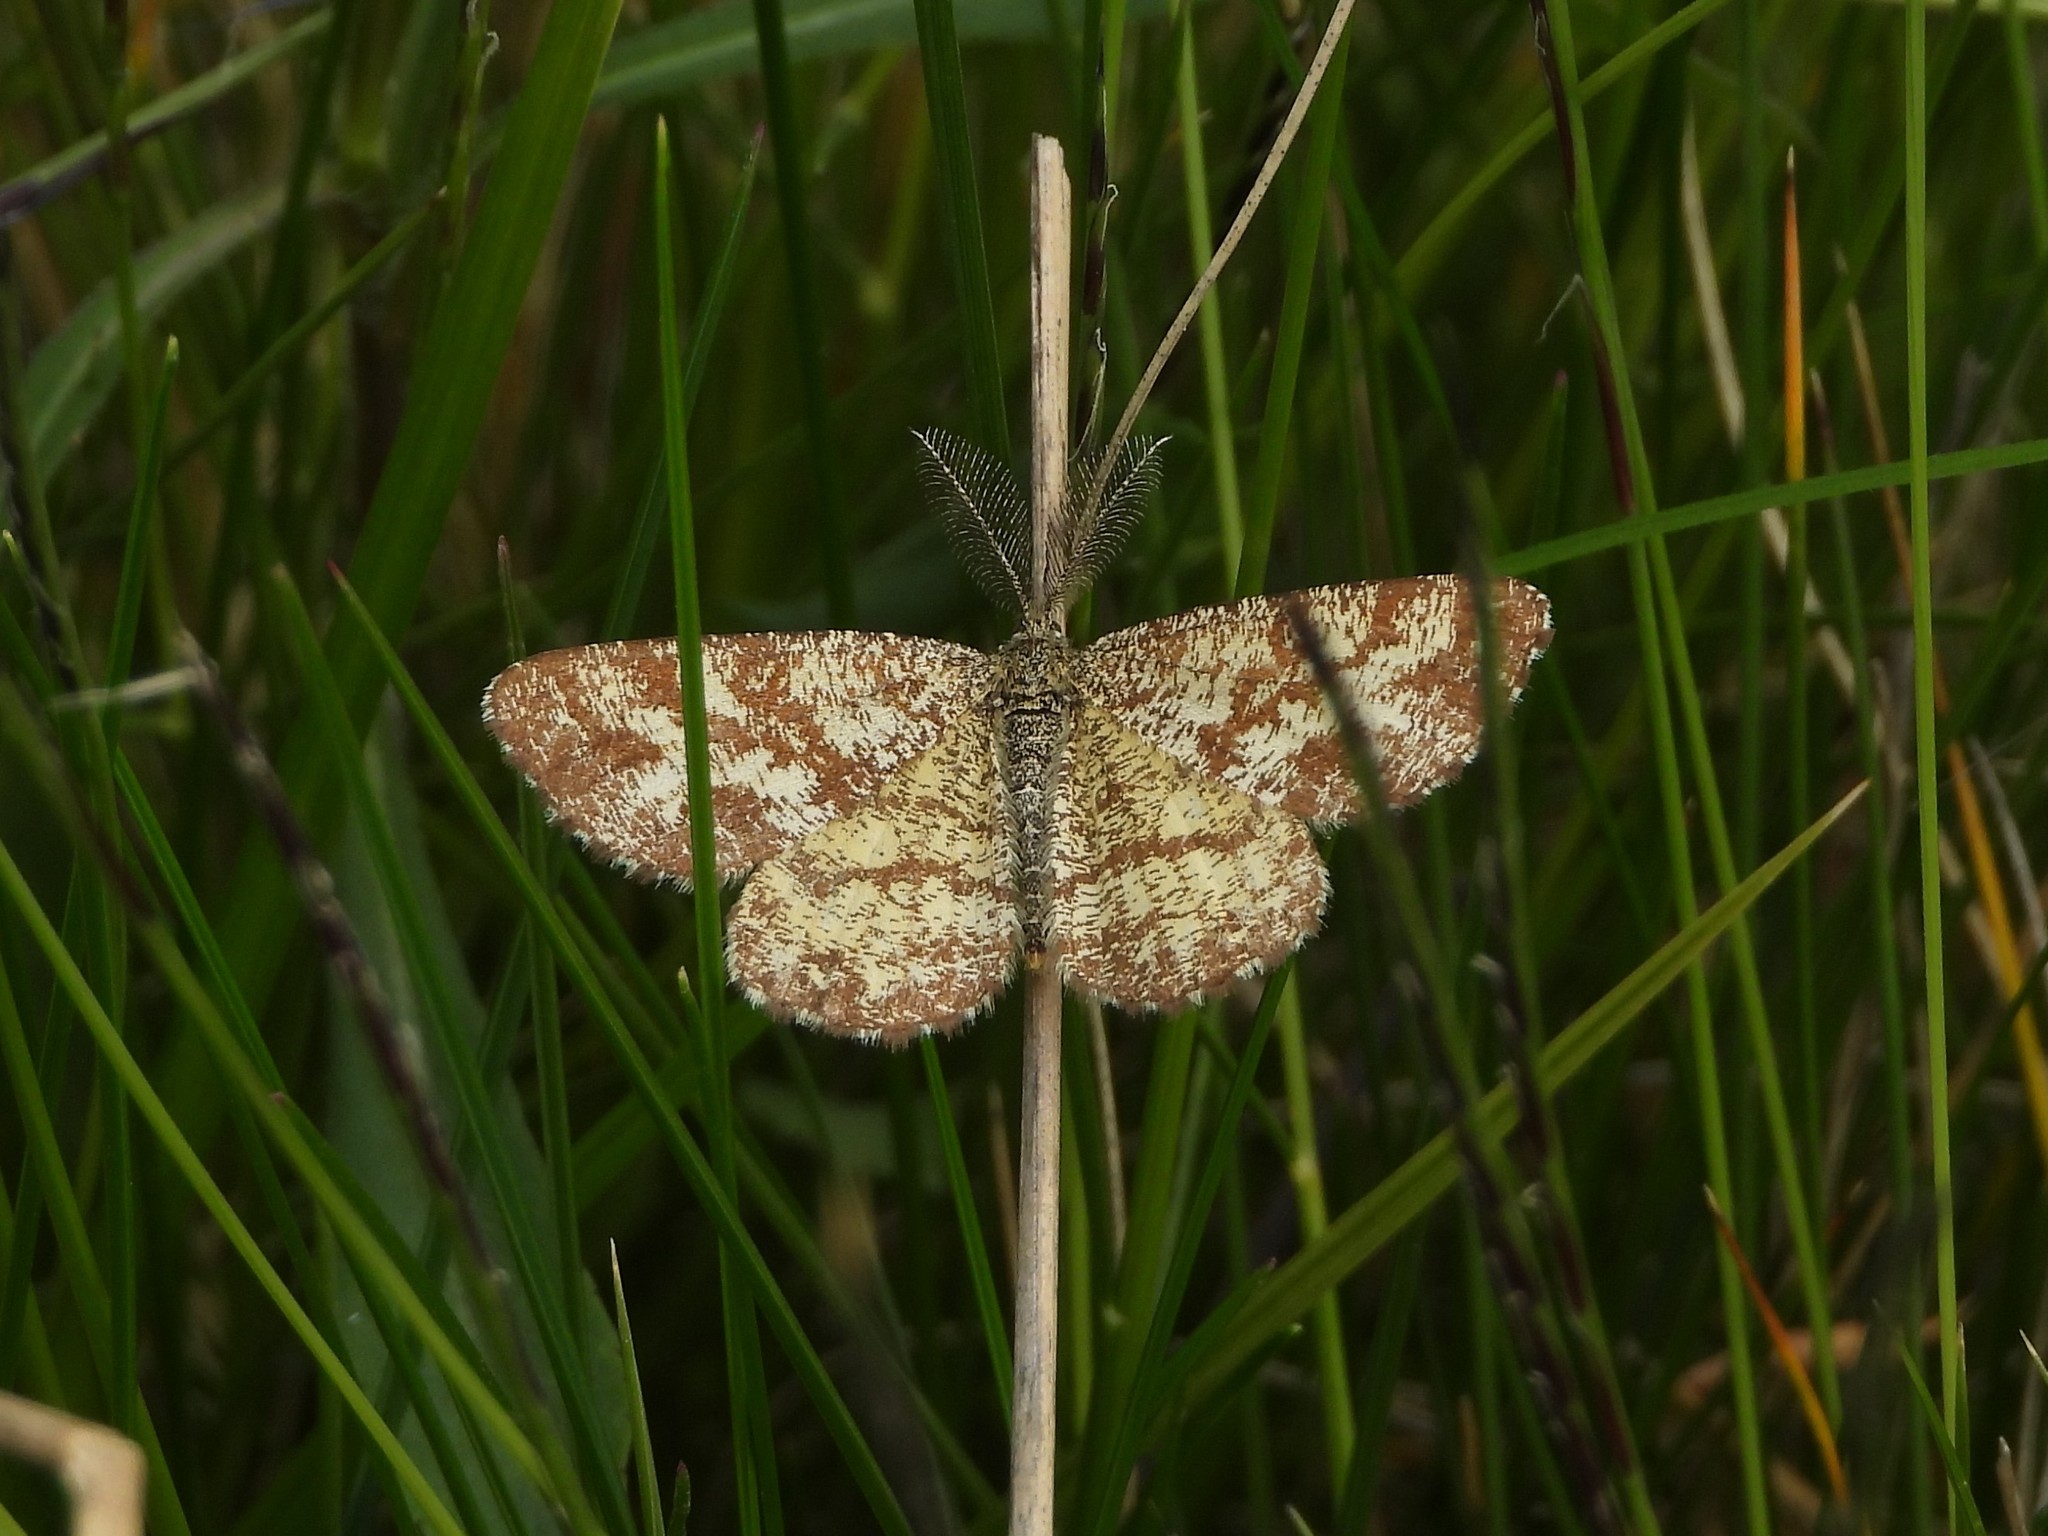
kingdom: Animalia
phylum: Arthropoda
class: Insecta
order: Lepidoptera
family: Geometridae
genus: Ematurga
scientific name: Ematurga atomaria
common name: Common heath
